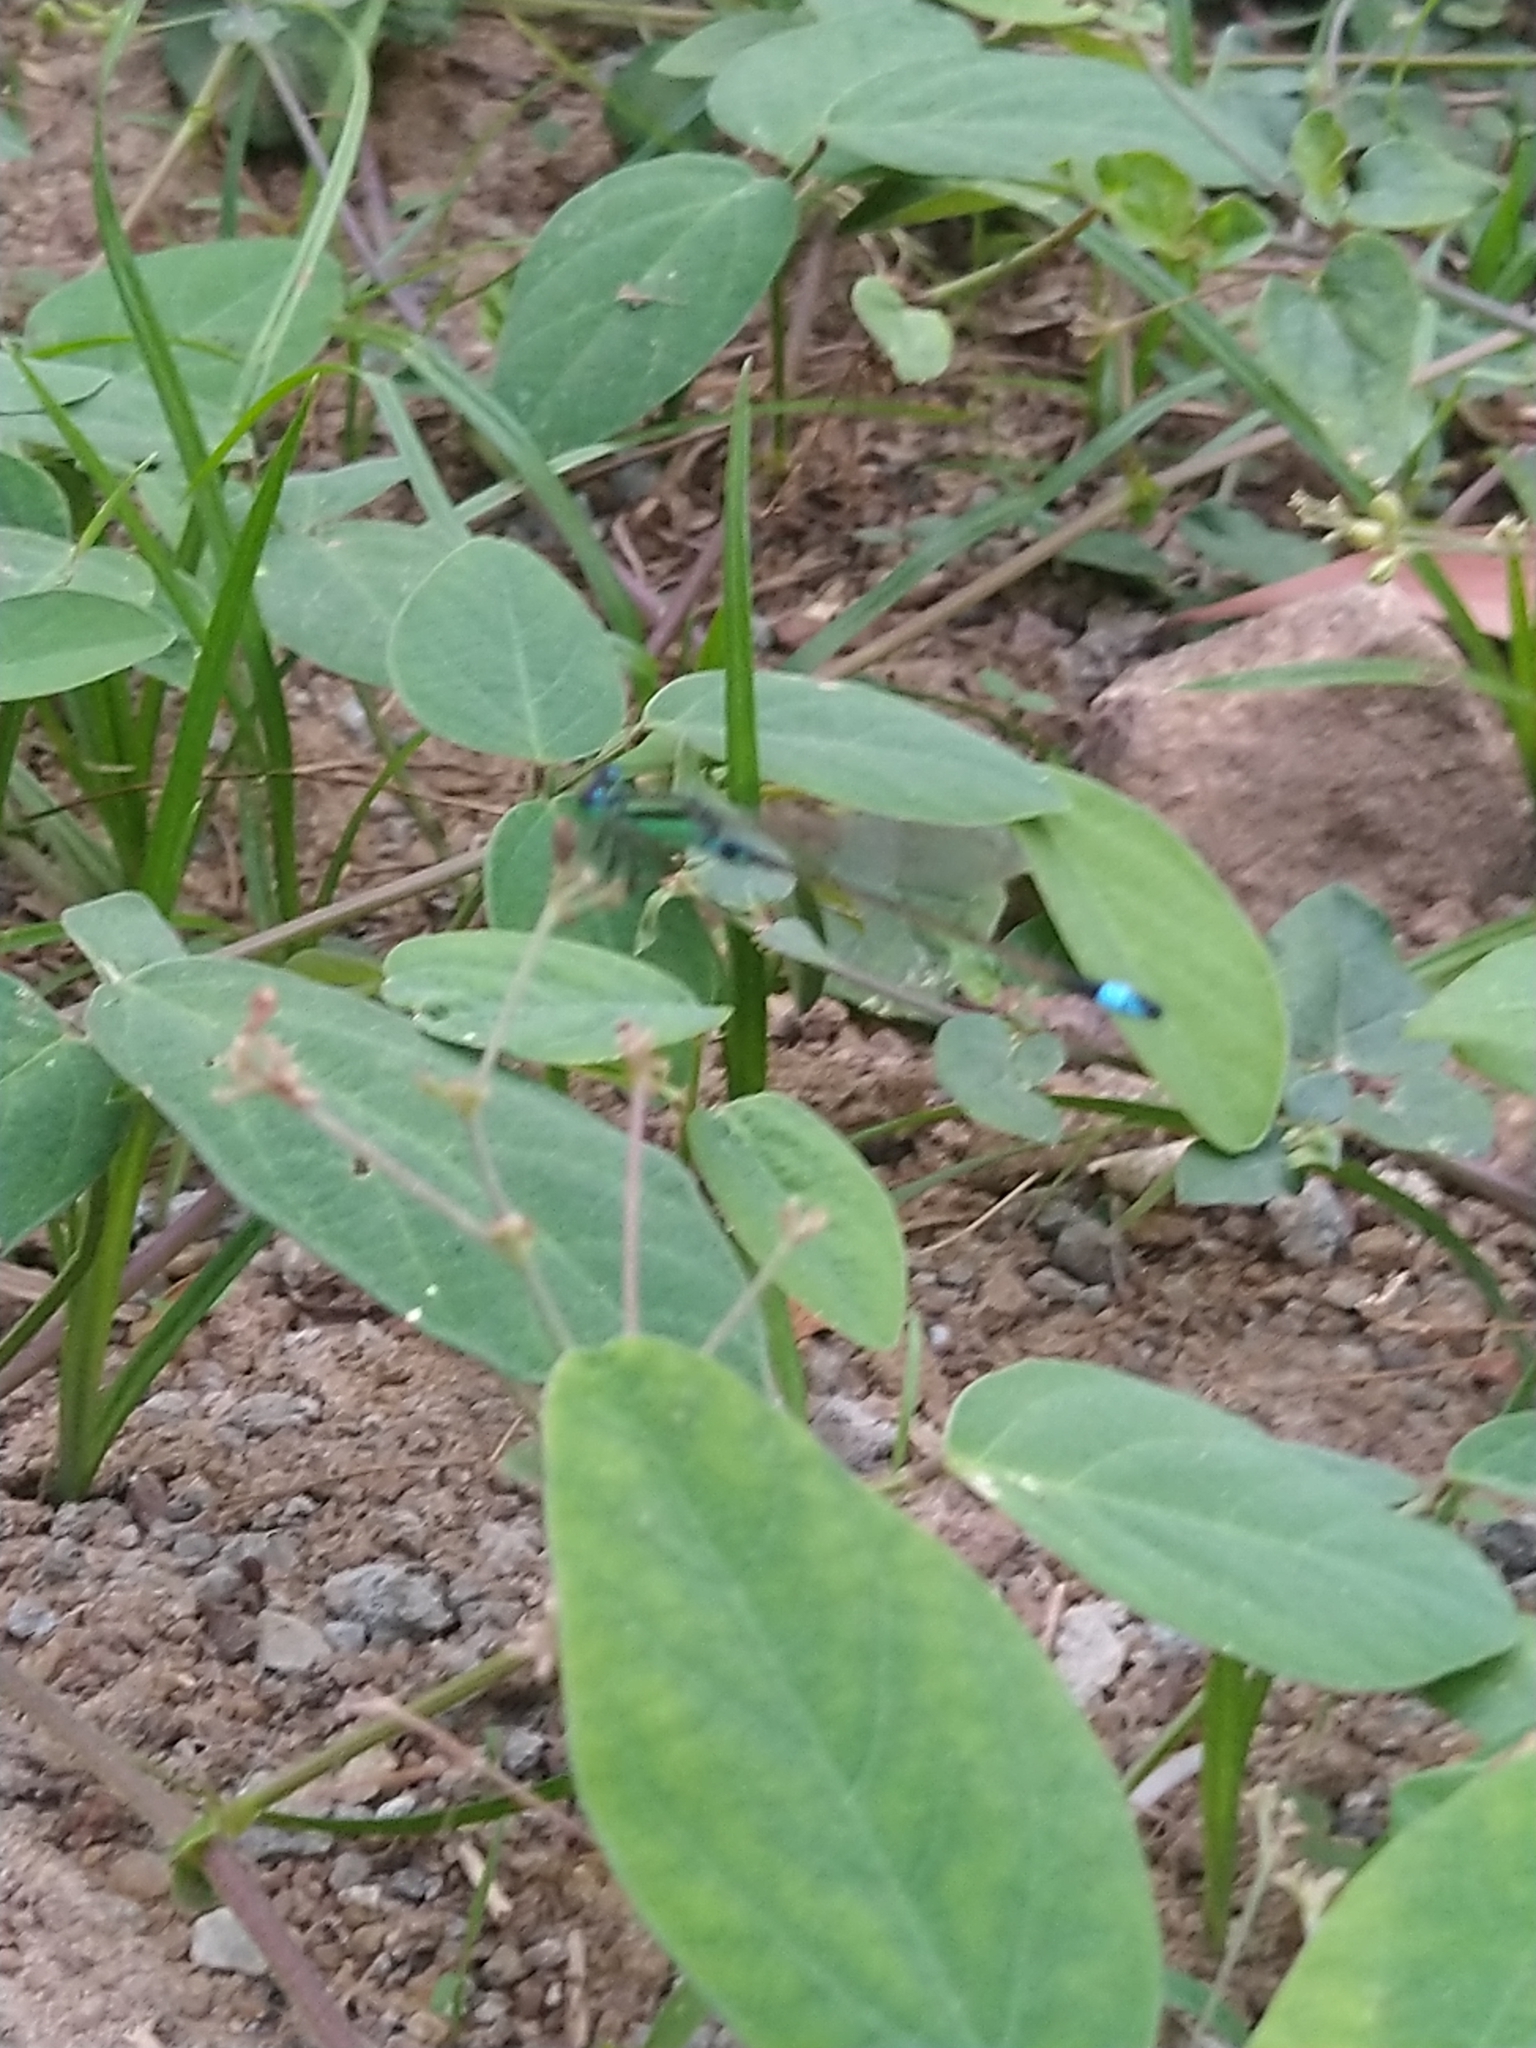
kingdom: Animalia
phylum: Arthropoda
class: Insecta
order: Odonata
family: Coenagrionidae
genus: Ischnura
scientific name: Ischnura senegalensis
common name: Tropical bluetail
